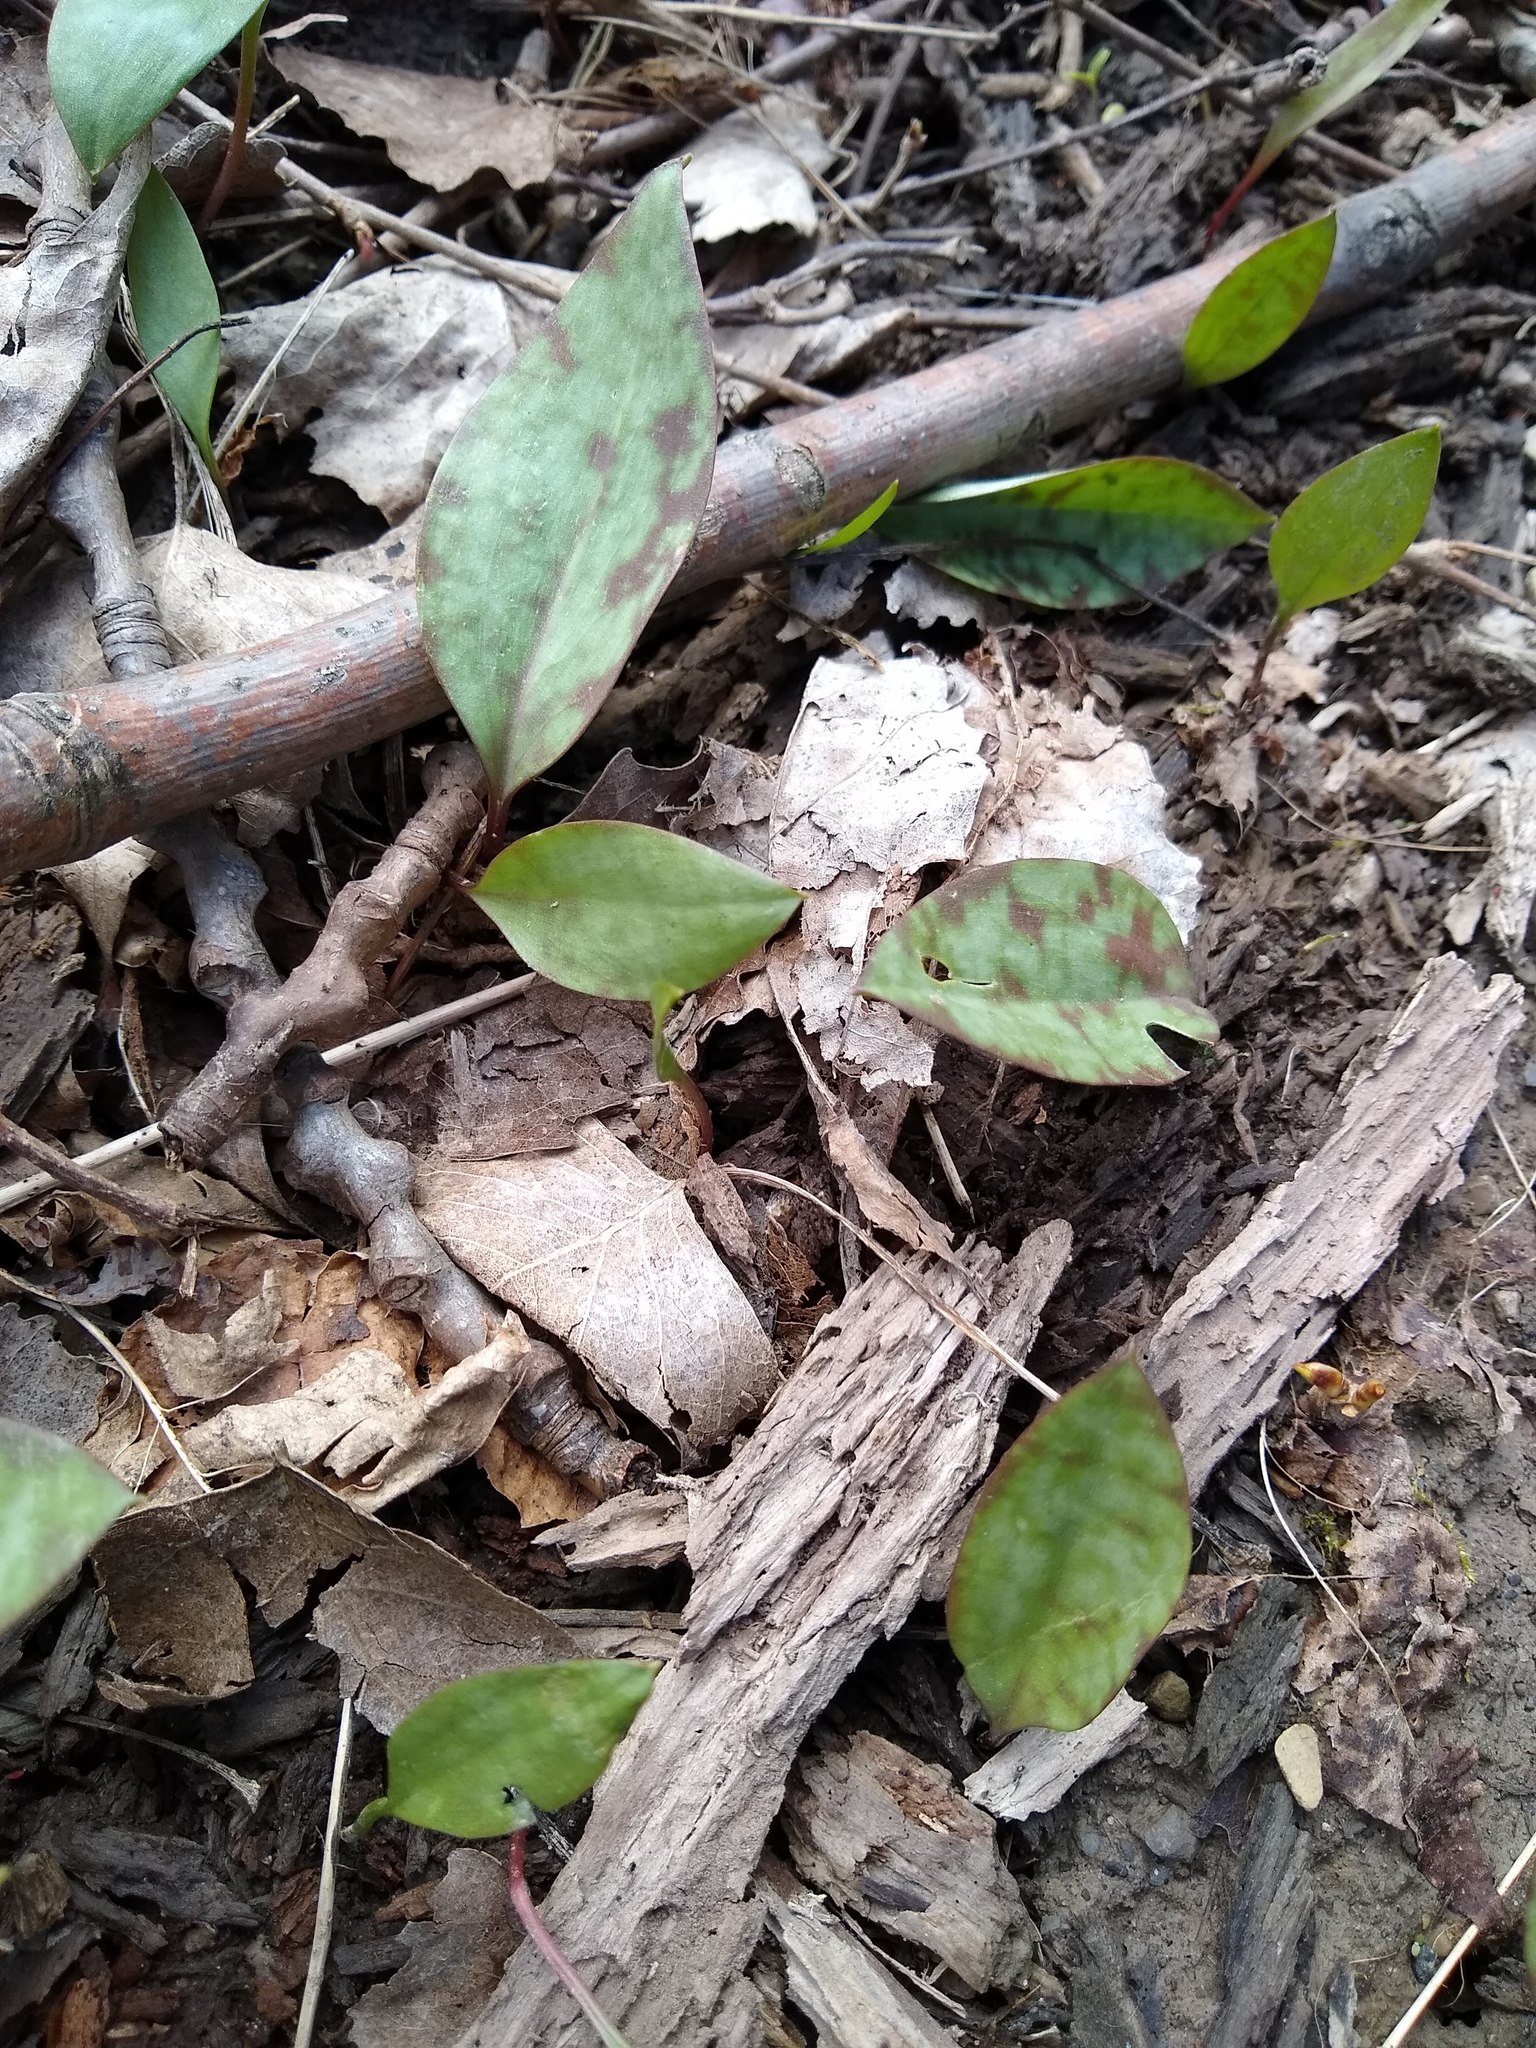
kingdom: Plantae
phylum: Tracheophyta
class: Liliopsida
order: Liliales
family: Liliaceae
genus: Erythronium
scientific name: Erythronium americanum
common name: Yellow adder's-tongue
